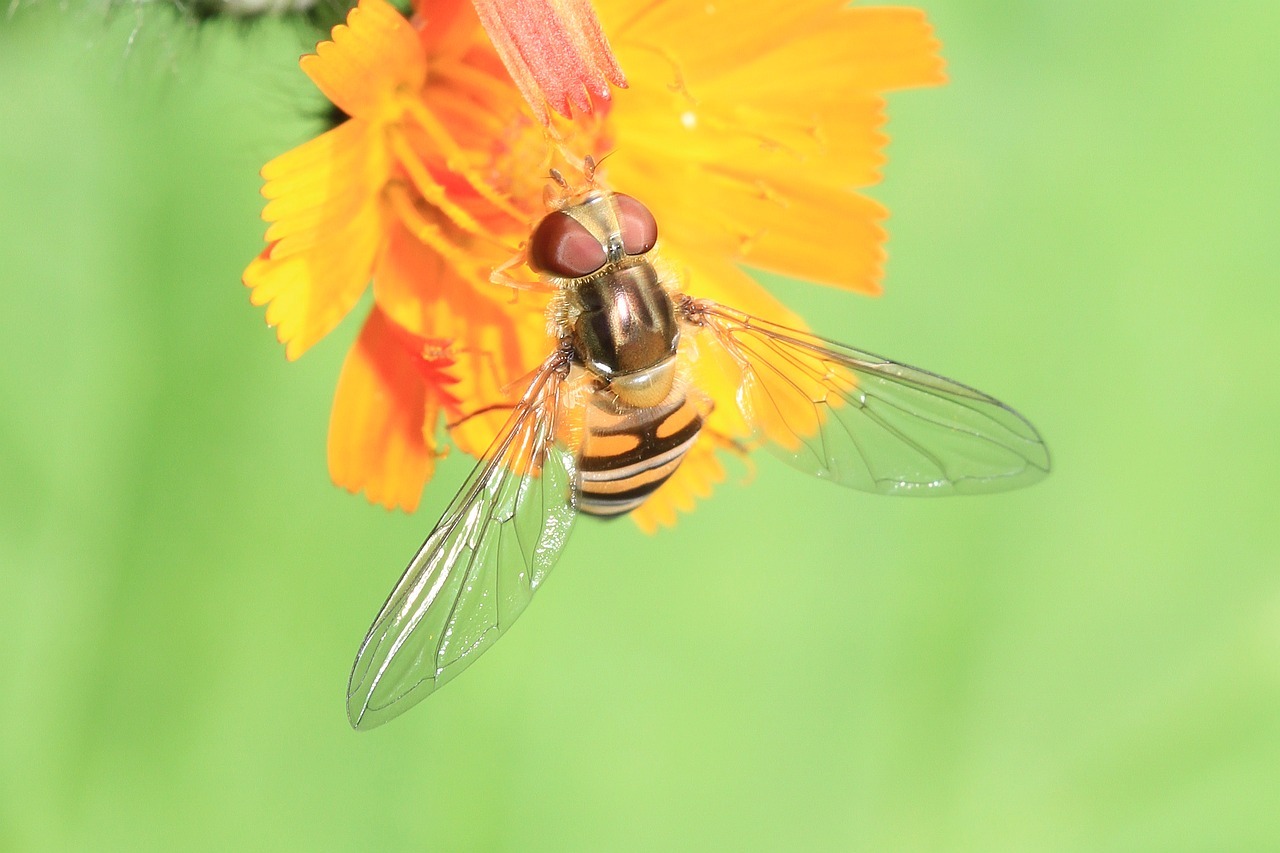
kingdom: Animalia
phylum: Arthropoda
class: Insecta
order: Diptera
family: Syrphidae
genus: Episyrphus
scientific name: Episyrphus balteatus
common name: Marmalade hoverfly
